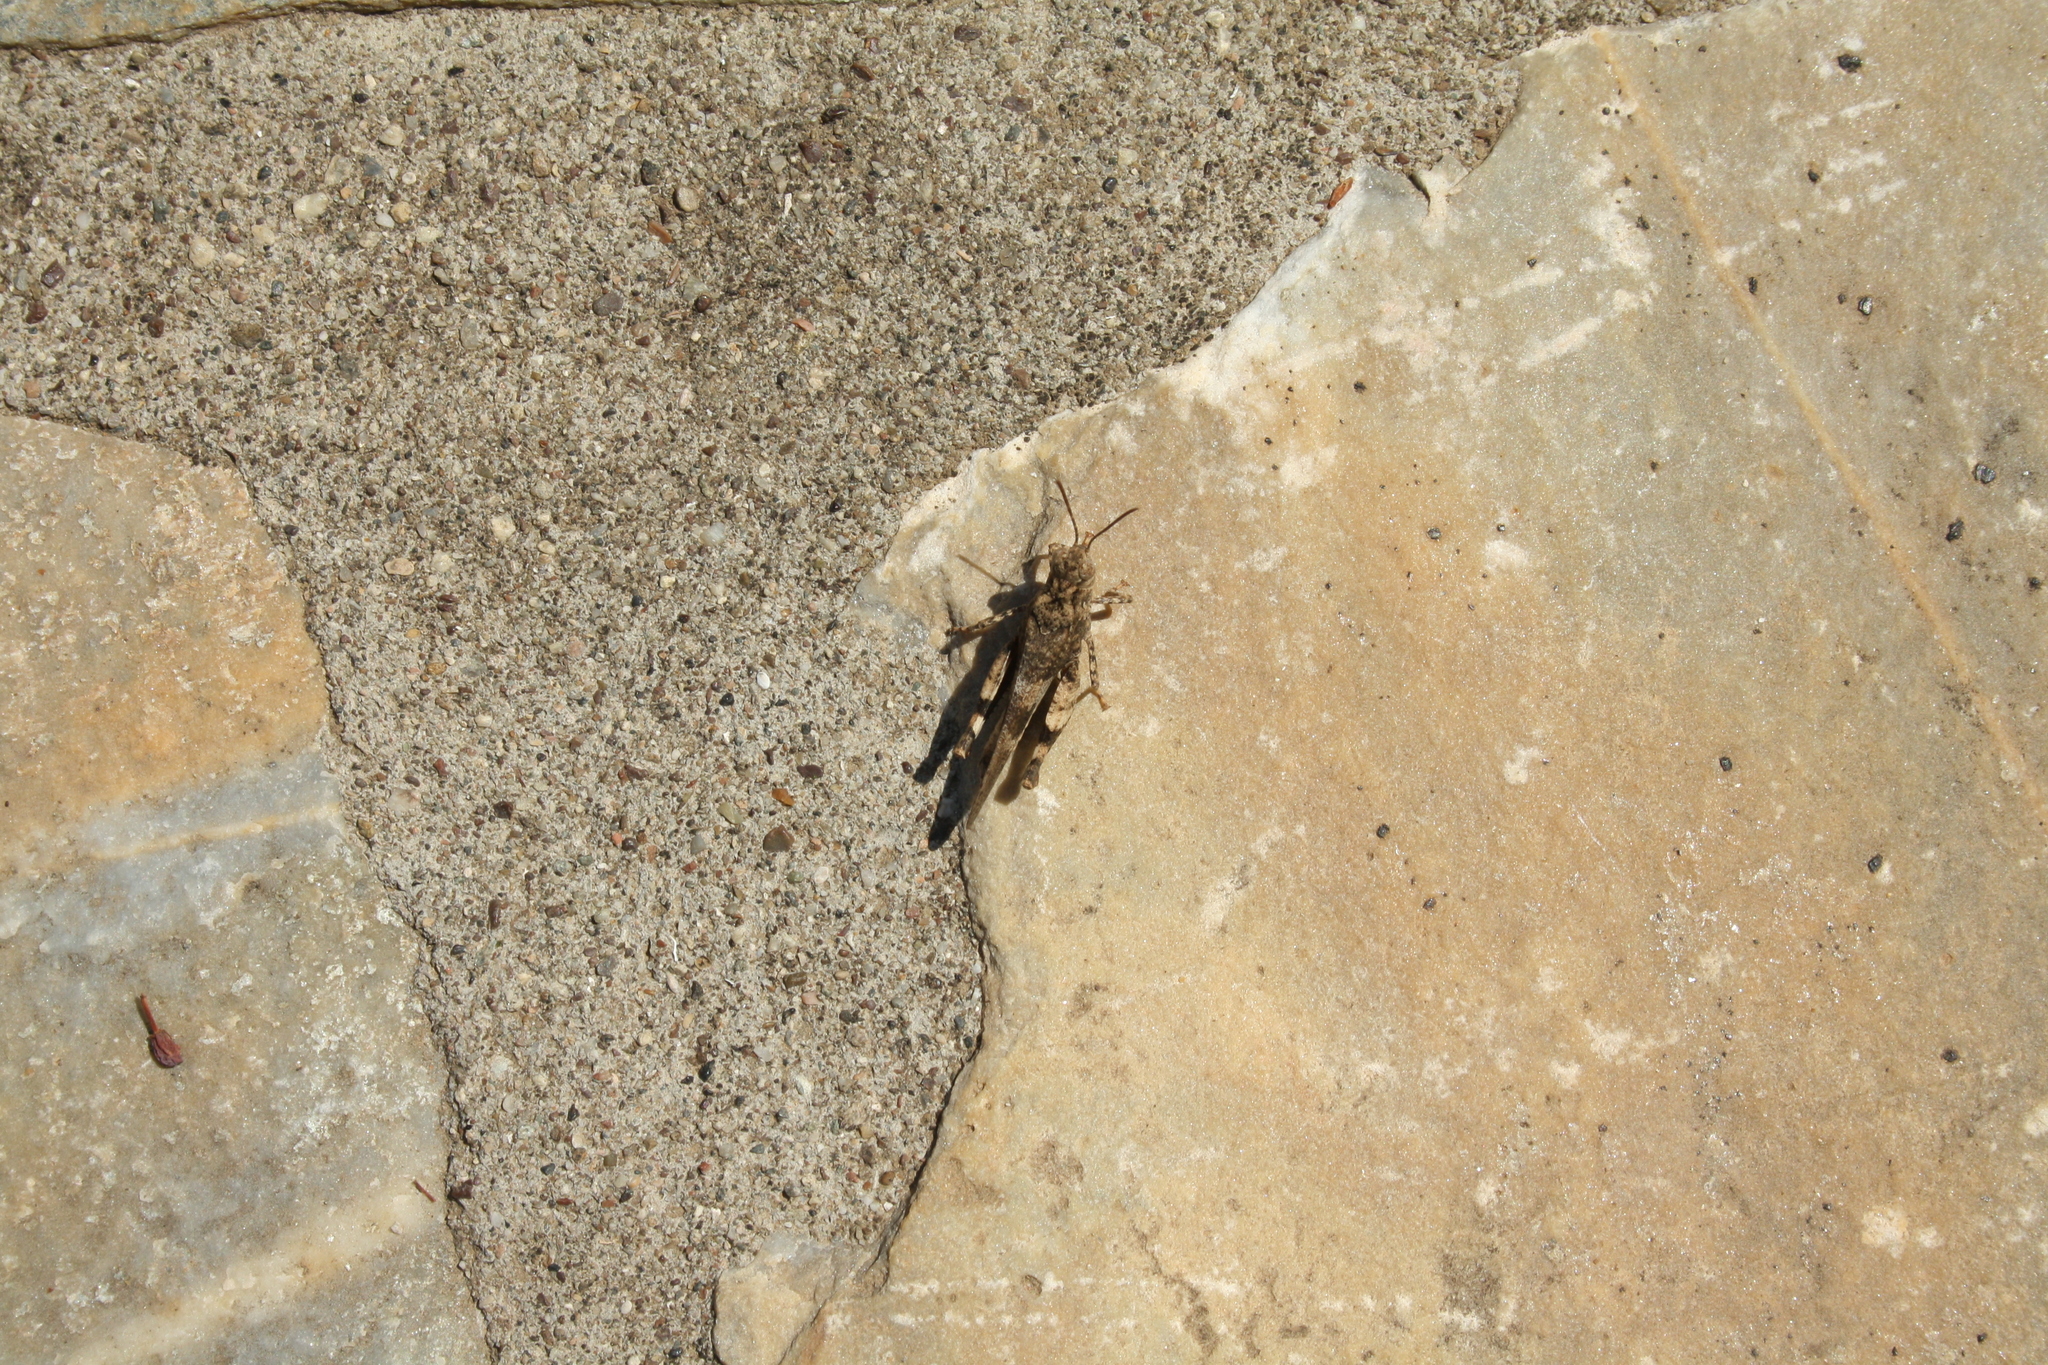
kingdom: Animalia
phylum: Arthropoda
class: Insecta
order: Orthoptera
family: Acrididae
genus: Oedipoda
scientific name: Oedipoda
